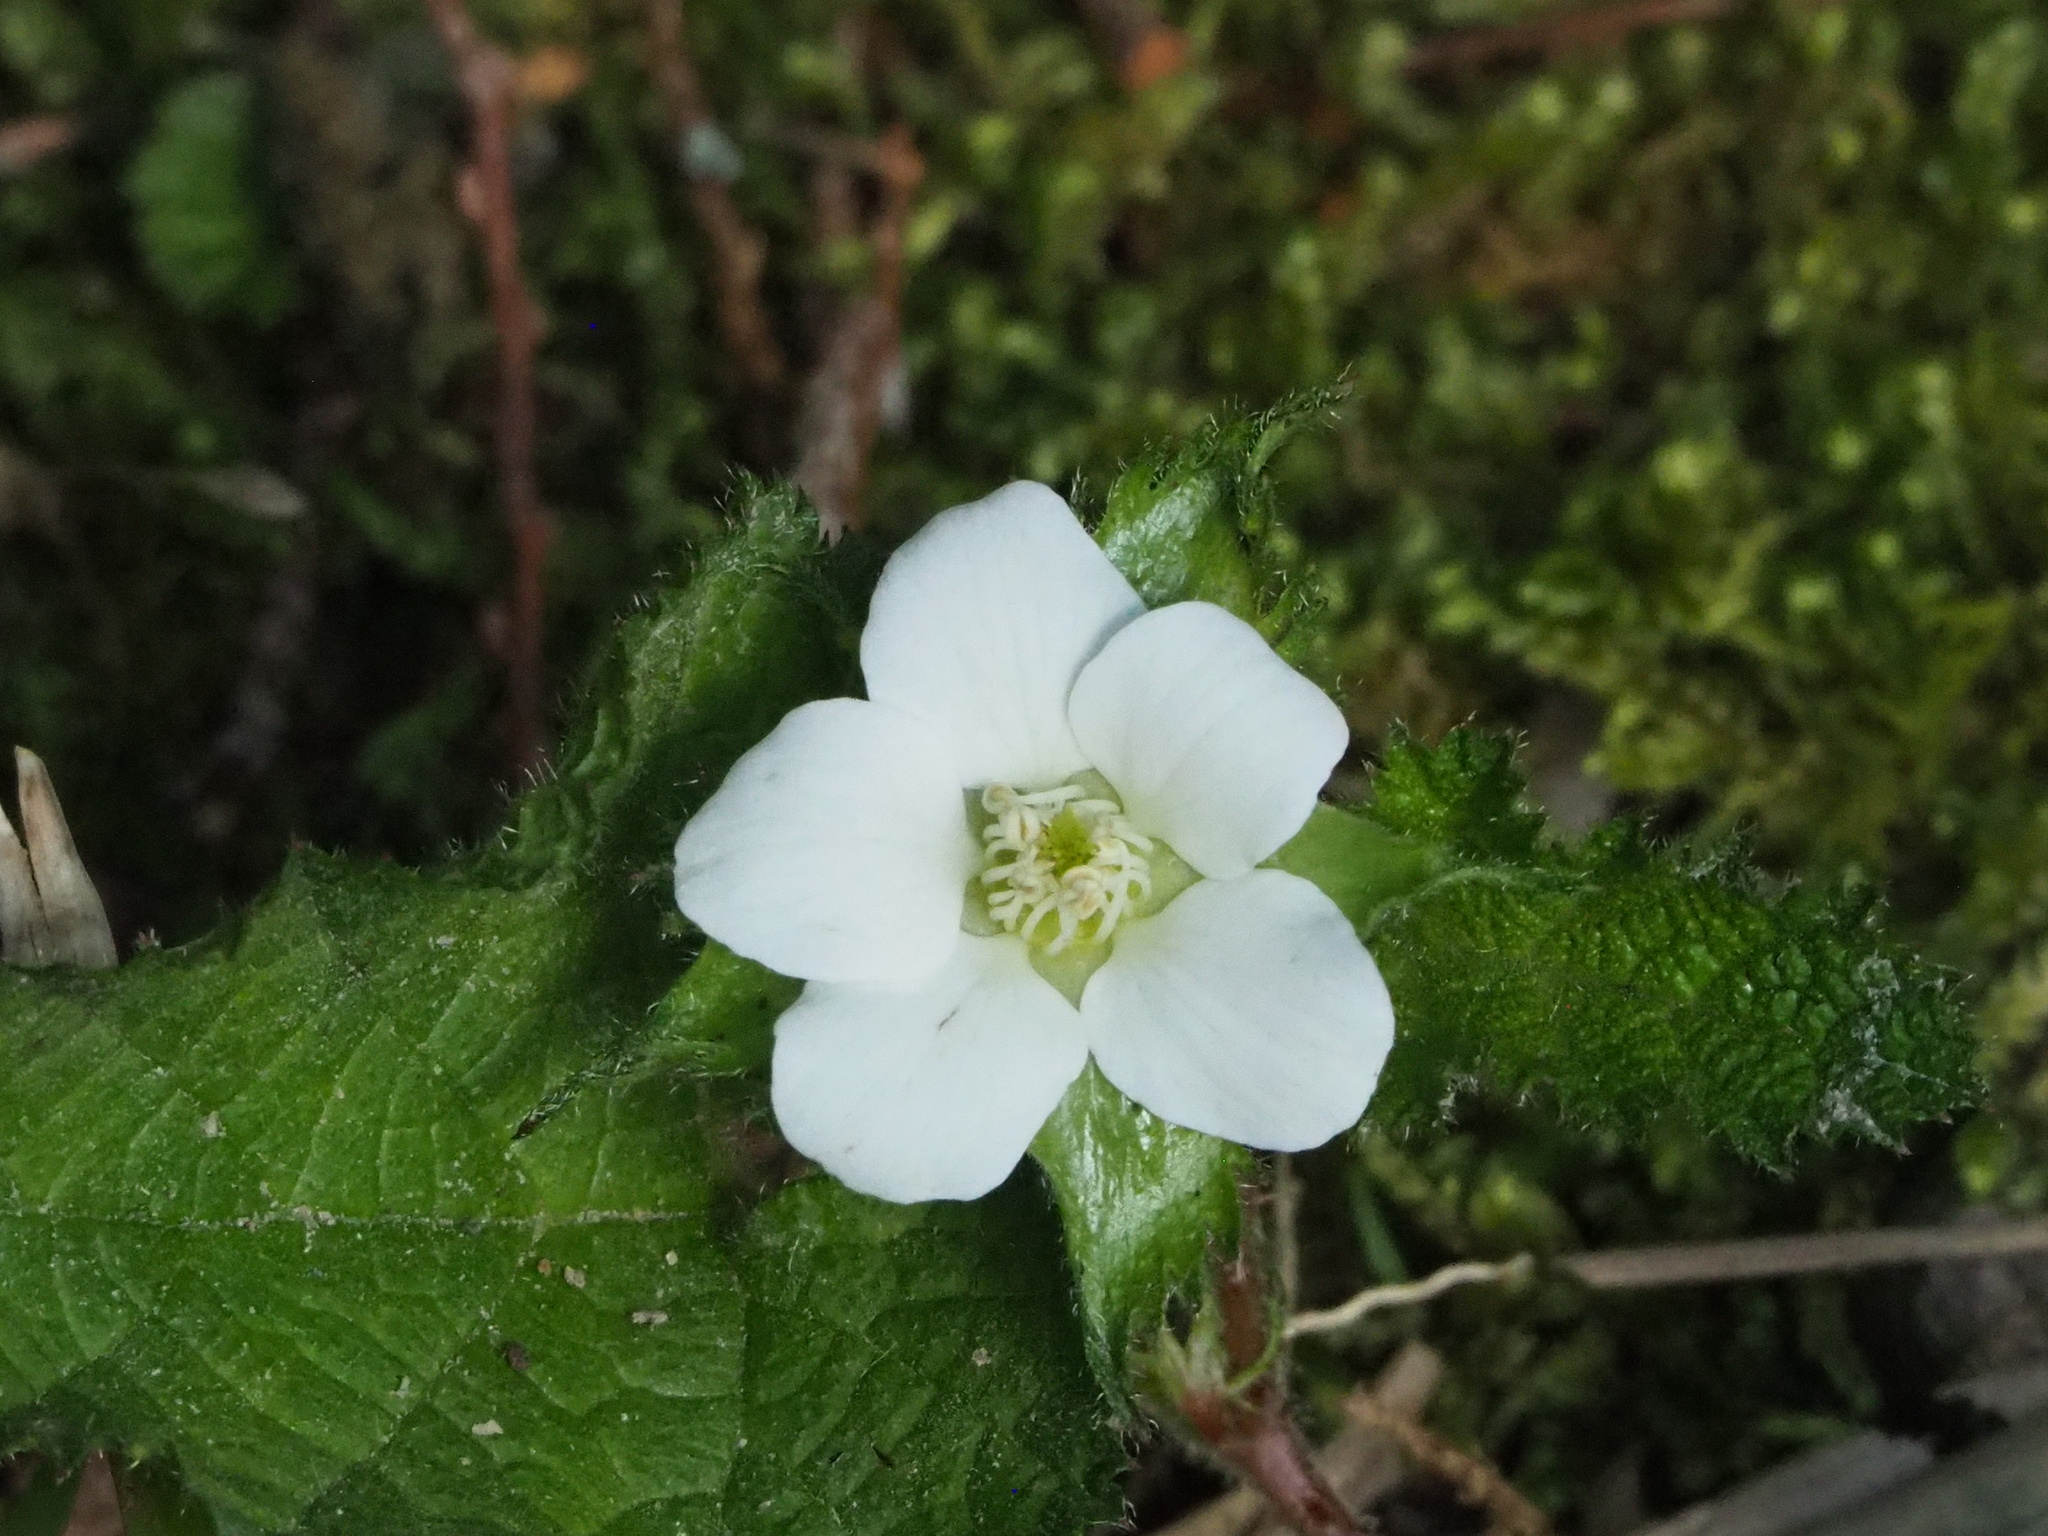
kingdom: Plantae
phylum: Tracheophyta
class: Magnoliopsida
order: Rosales
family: Rosaceae
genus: Rubus
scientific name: Rubus pectinellus
